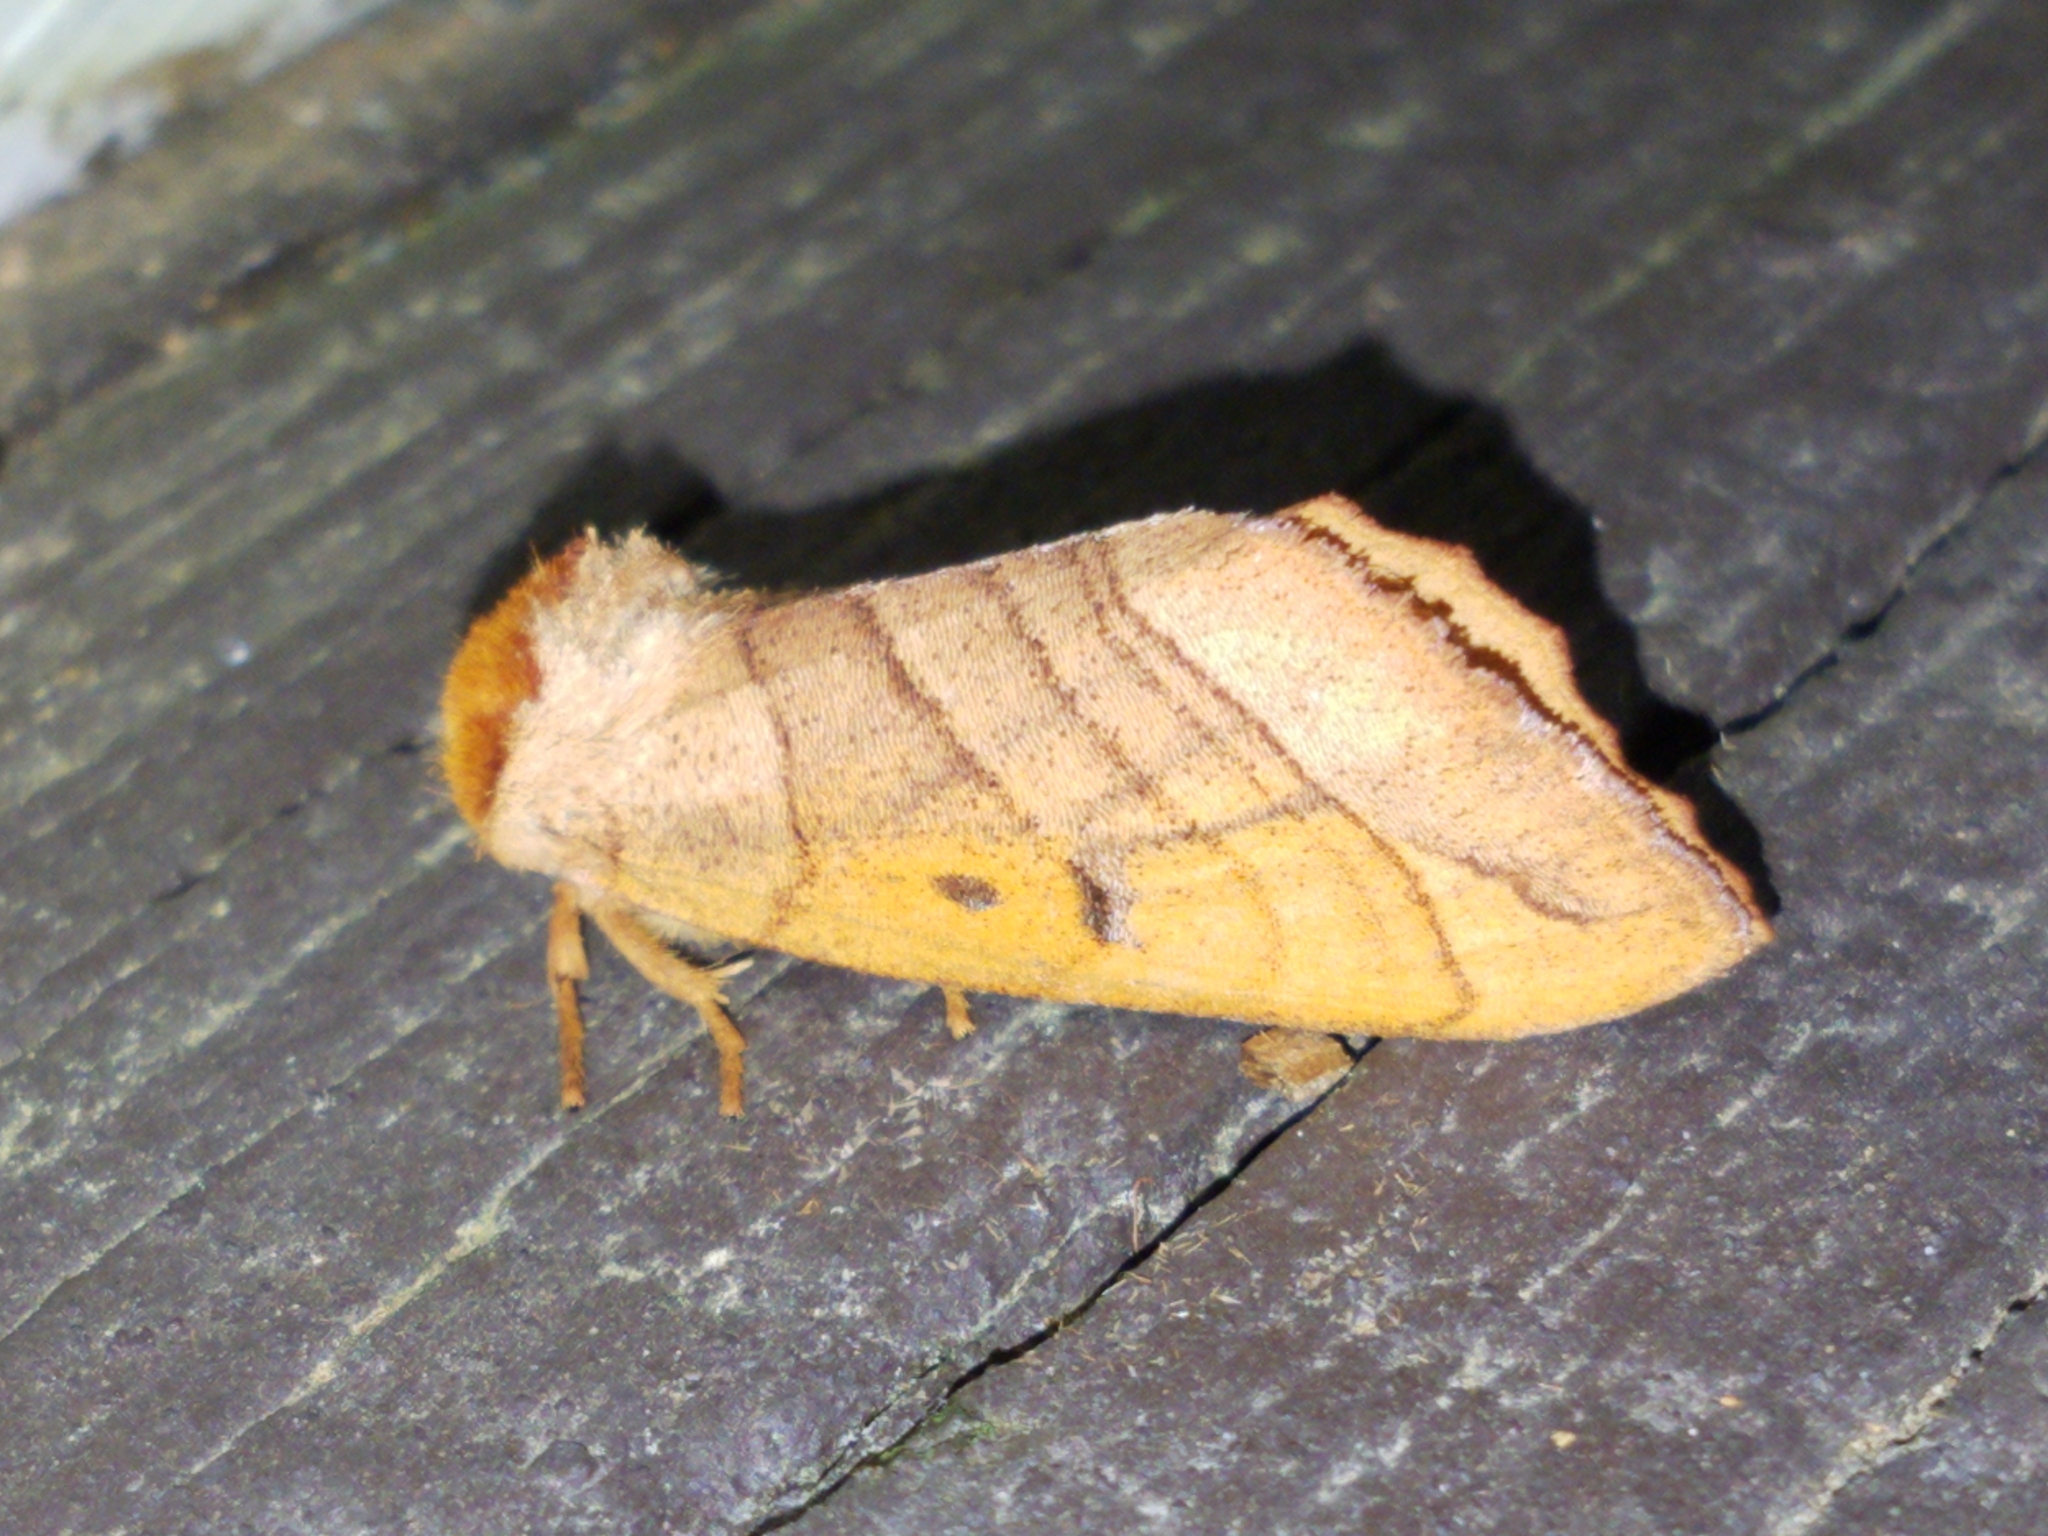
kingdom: Animalia
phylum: Arthropoda
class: Insecta
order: Lepidoptera
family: Notodontidae
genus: Datana
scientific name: Datana perspicua
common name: Spotted datana
